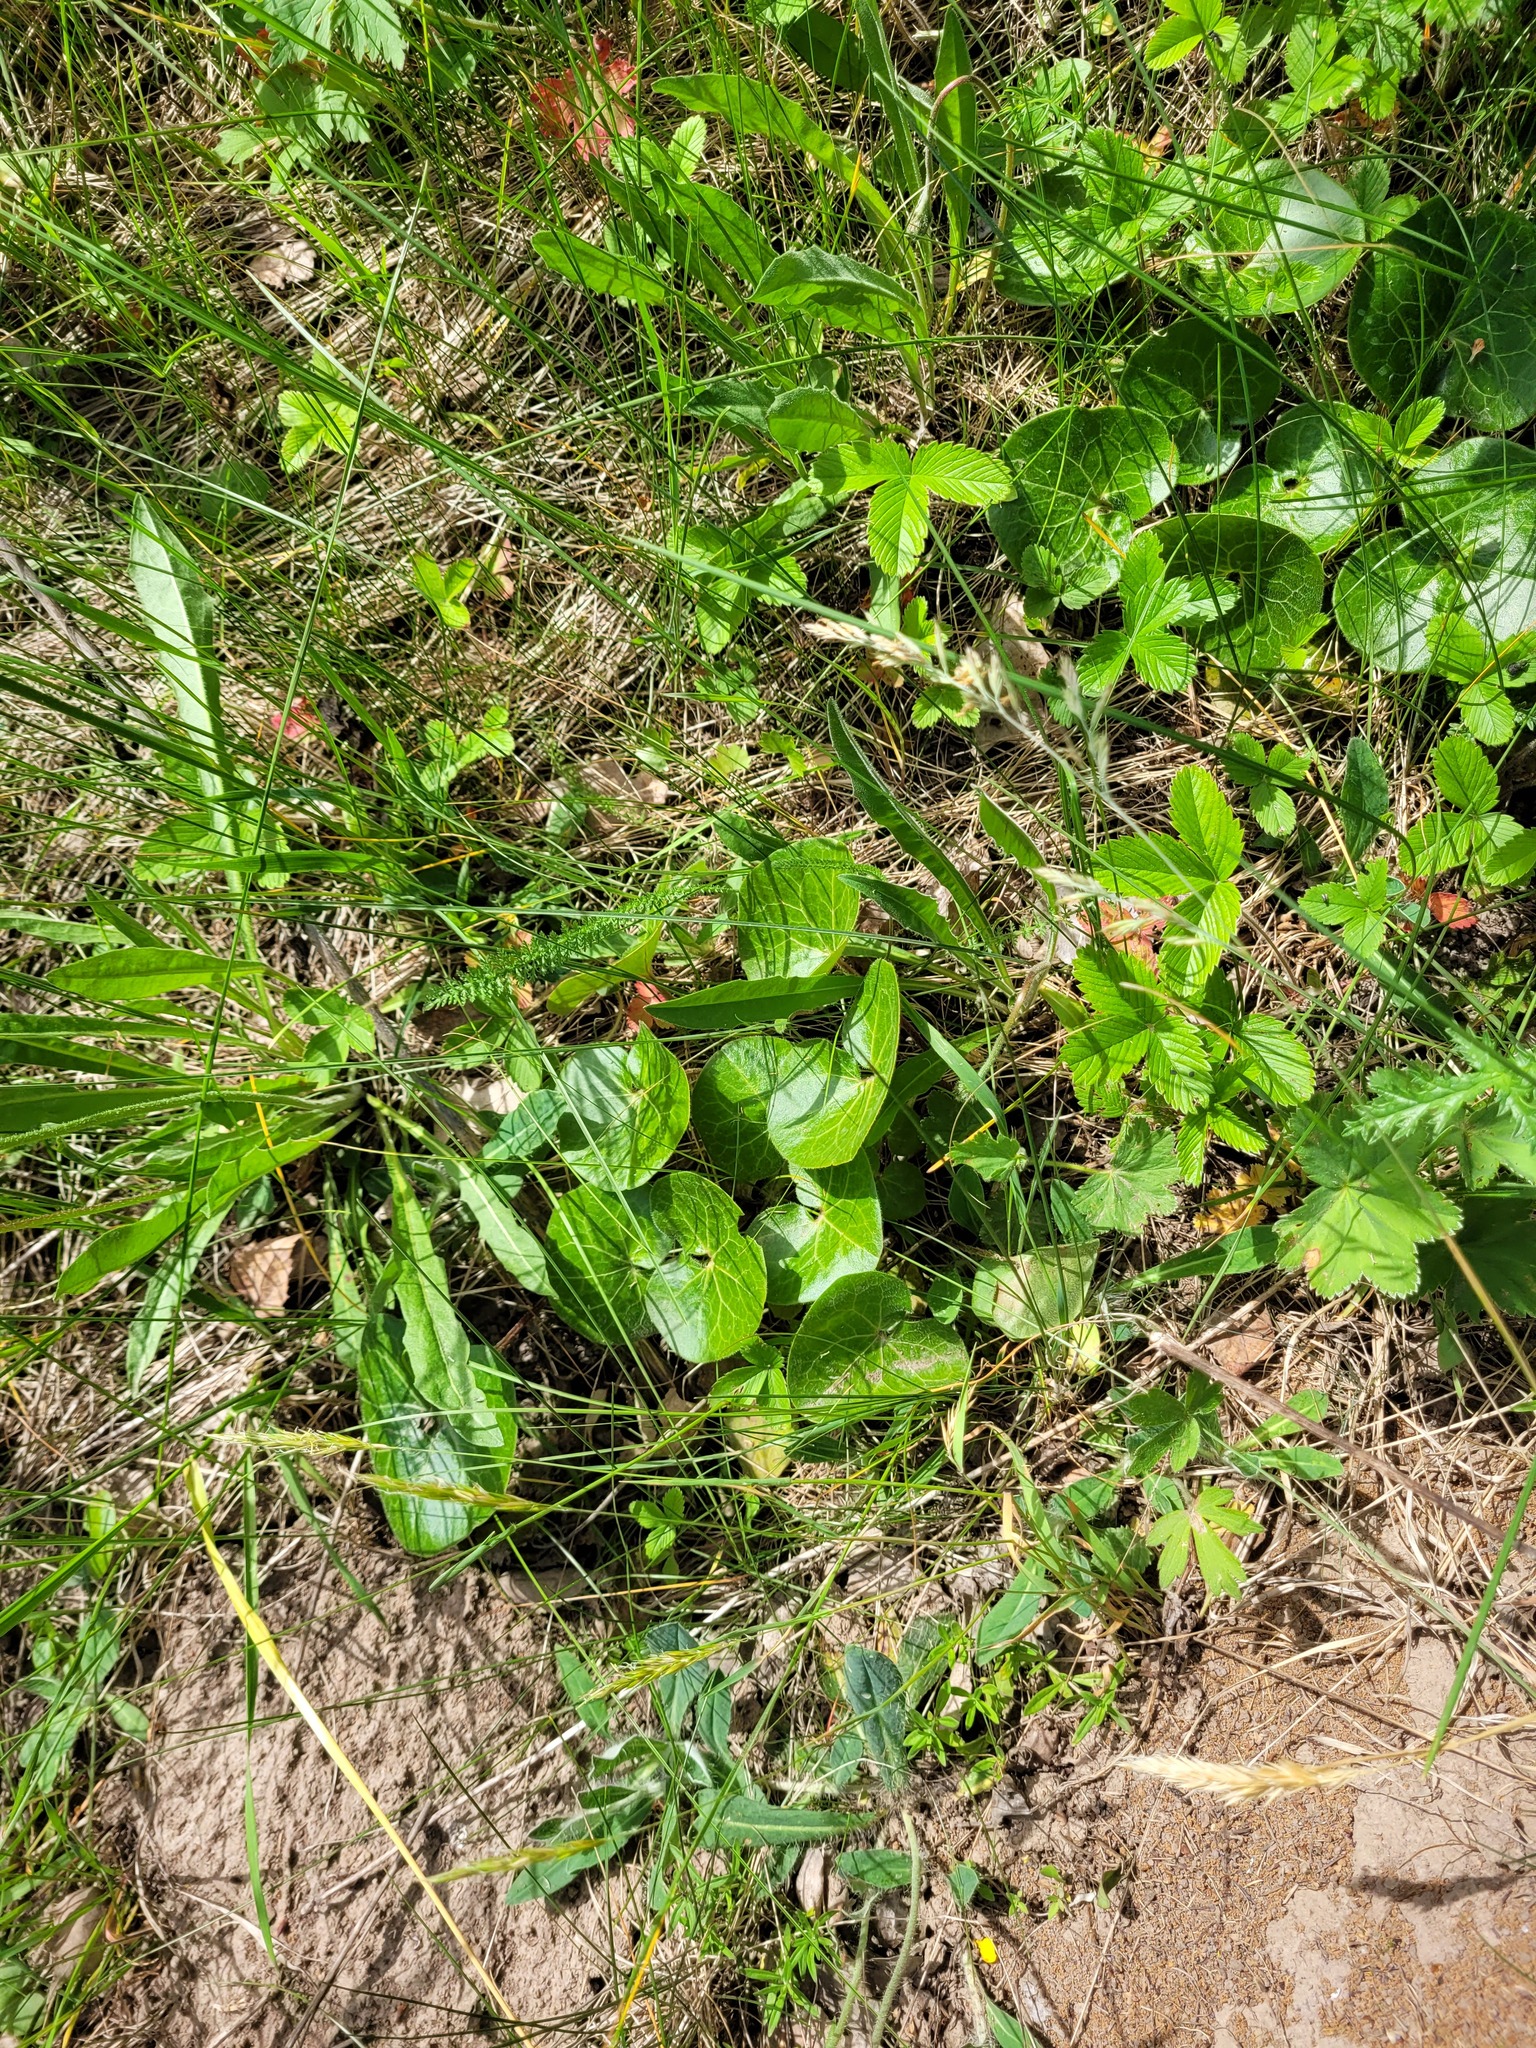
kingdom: Plantae
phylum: Tracheophyta
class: Magnoliopsida
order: Piperales
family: Aristolochiaceae
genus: Asarum
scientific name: Asarum europaeum
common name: Asarabacca
